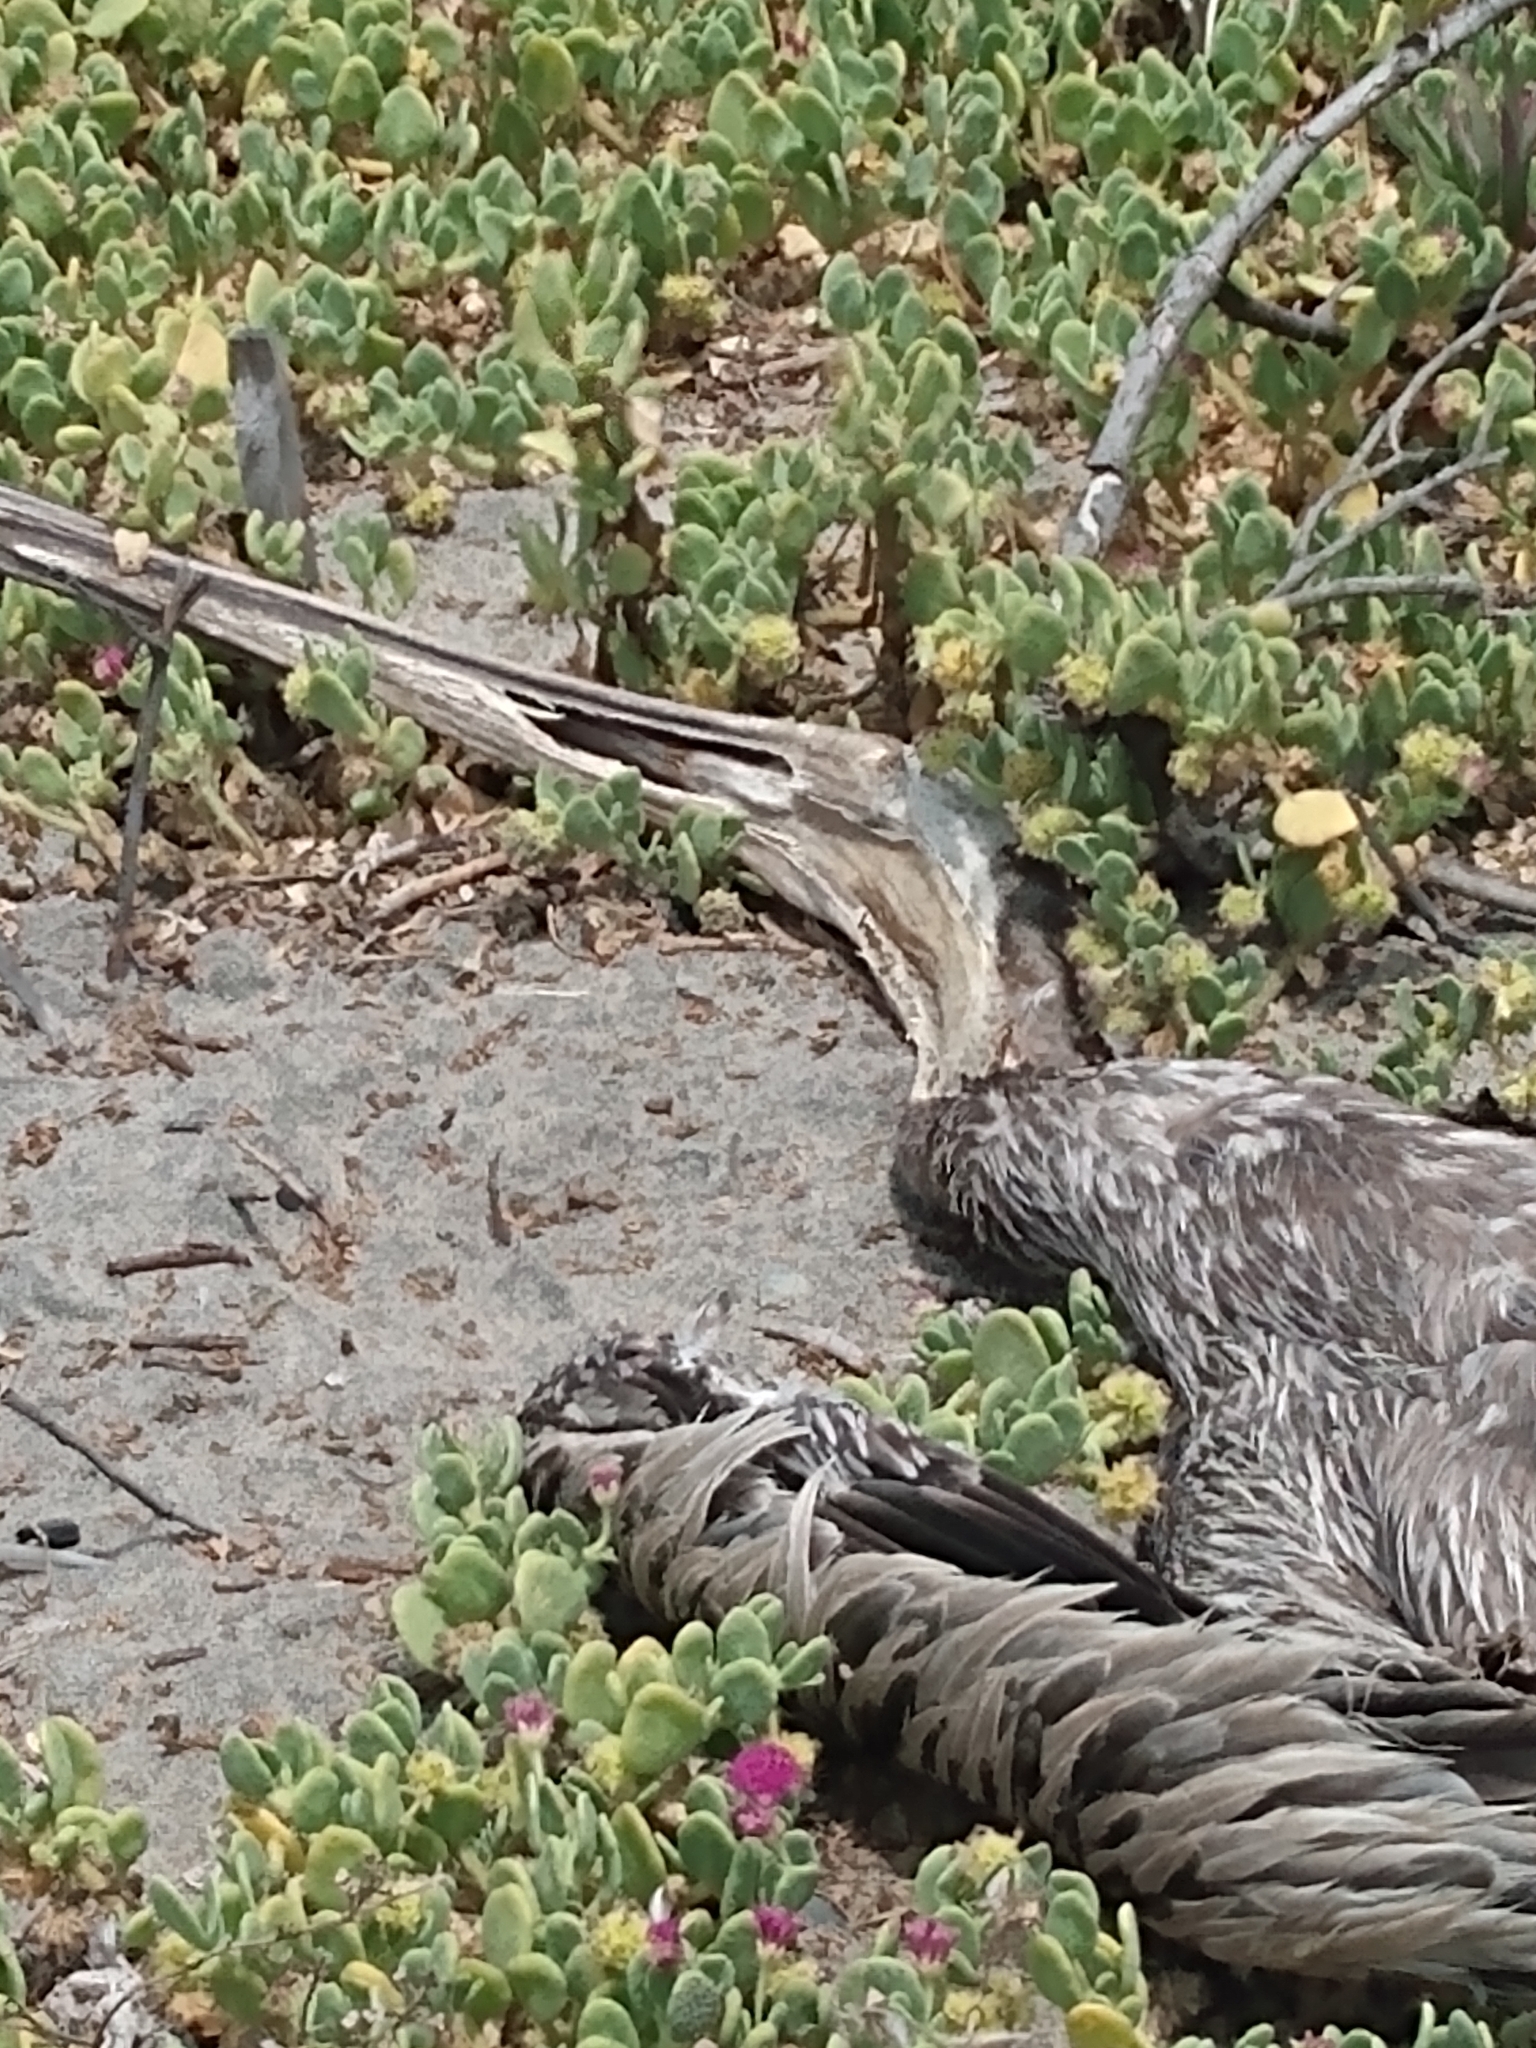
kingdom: Animalia
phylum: Chordata
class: Aves
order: Pelecaniformes
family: Pelecanidae
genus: Pelecanus
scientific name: Pelecanus occidentalis
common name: Brown pelican
